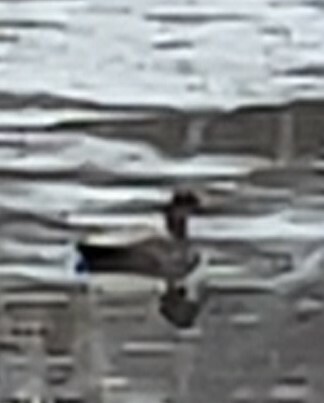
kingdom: Animalia
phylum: Chordata
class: Aves
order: Anseriformes
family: Anatidae
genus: Mareca
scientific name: Mareca strepera
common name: Gadwall
